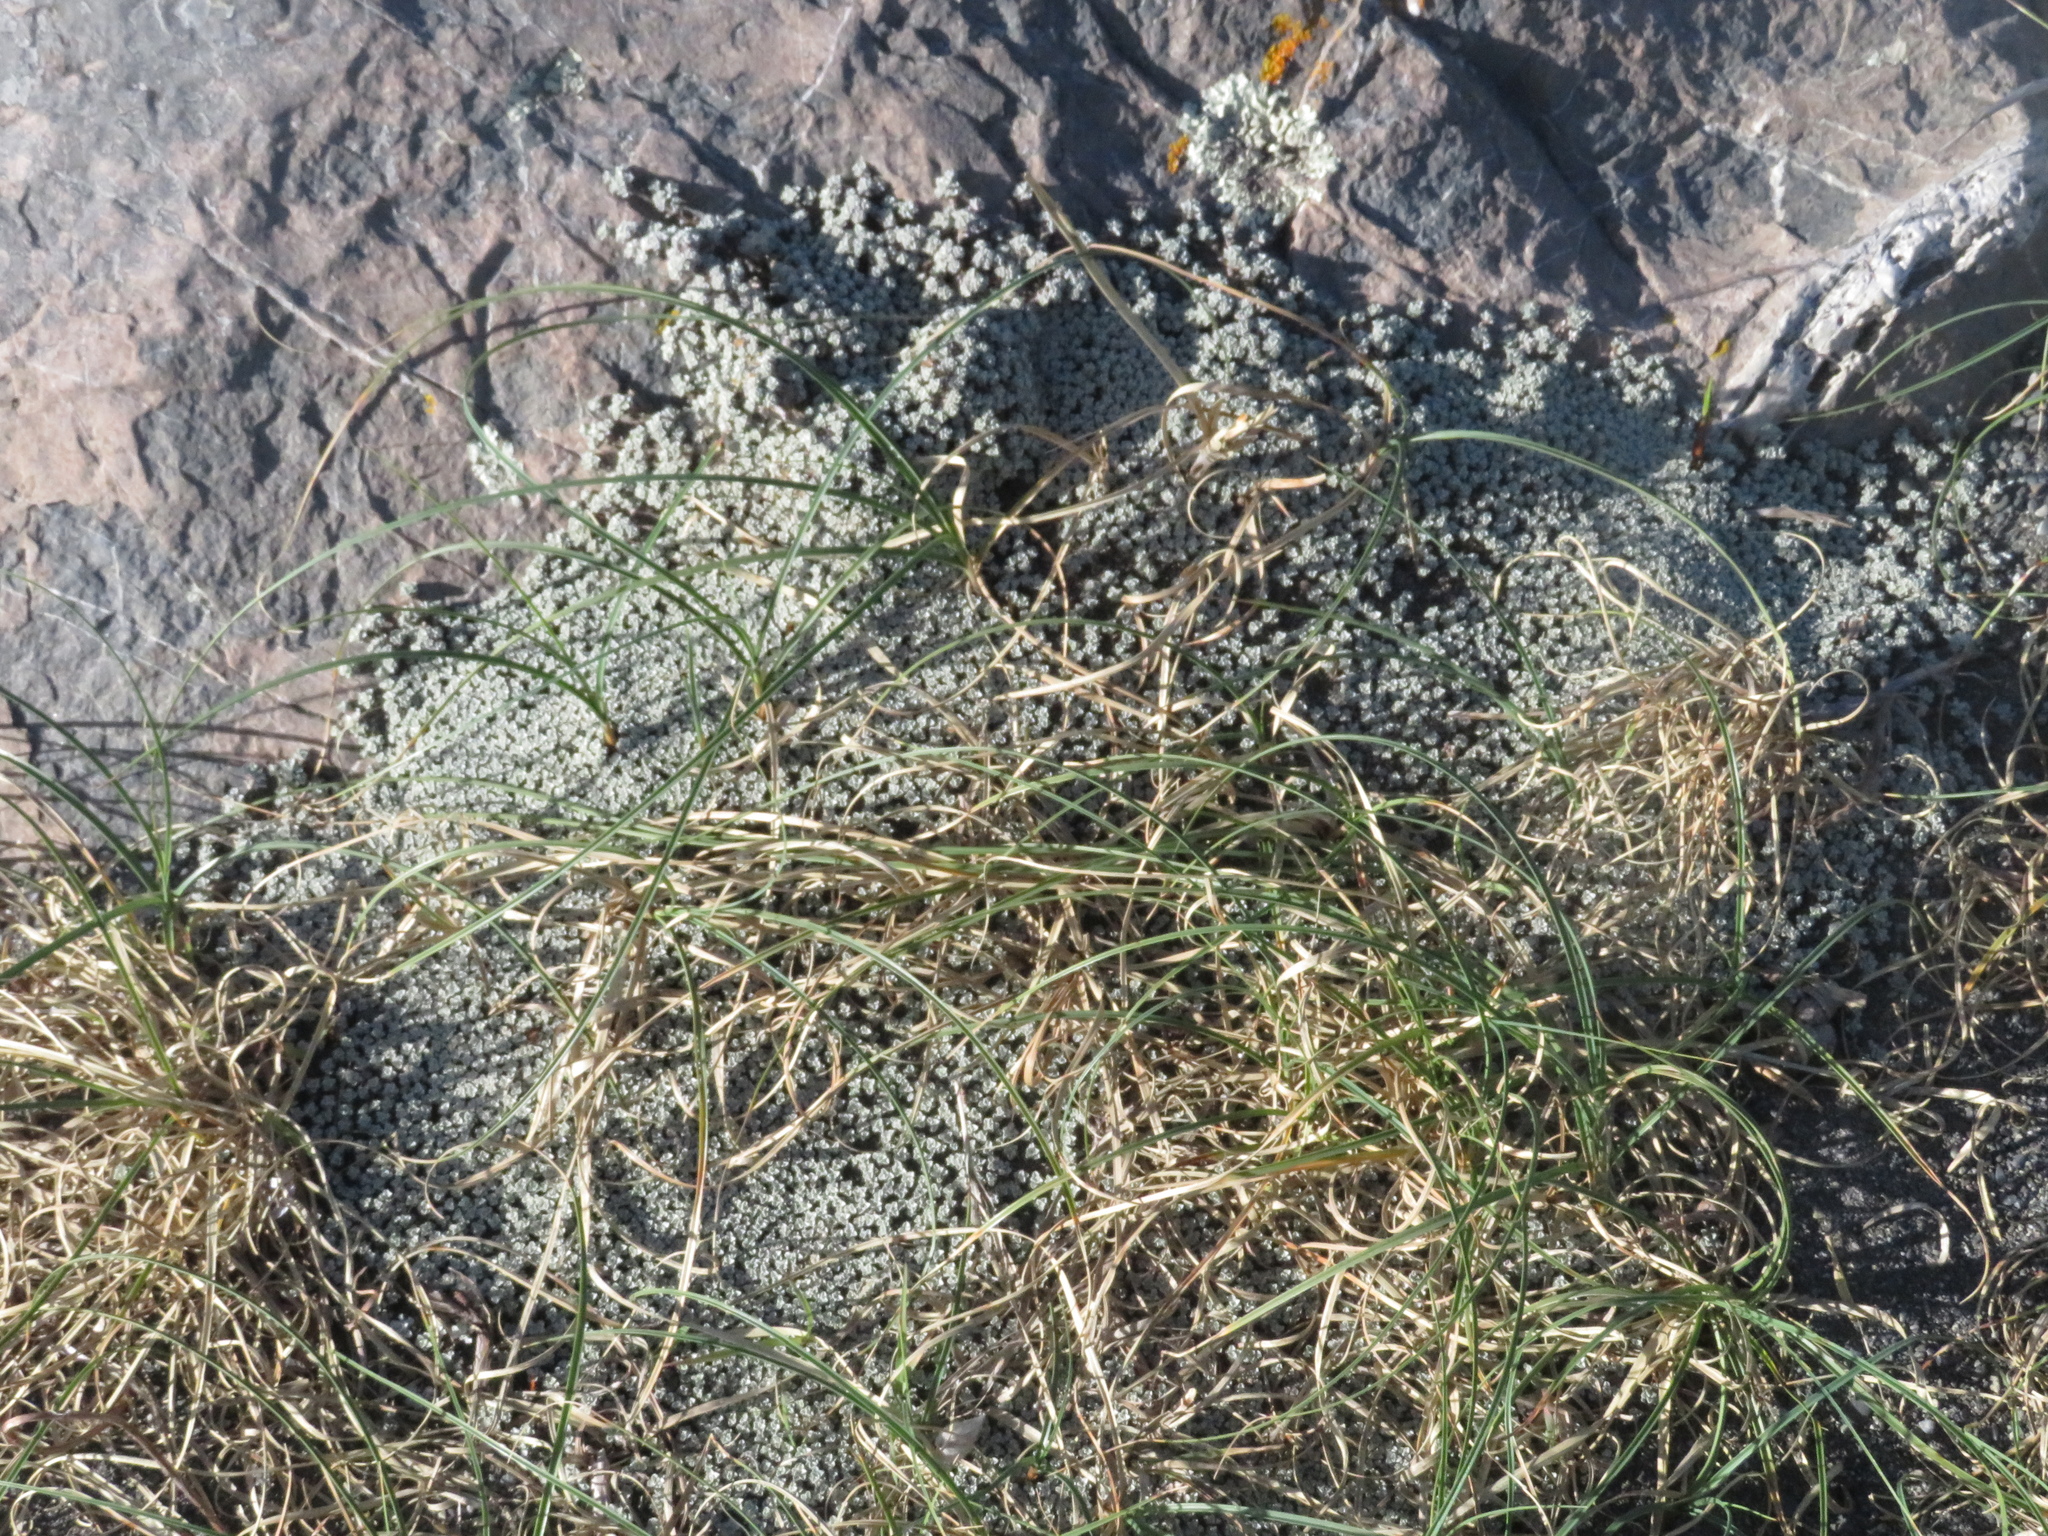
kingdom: Plantae
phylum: Tracheophyta
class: Magnoliopsida
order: Asterales
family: Asteraceae
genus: Raoulia
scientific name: Raoulia hookeri
